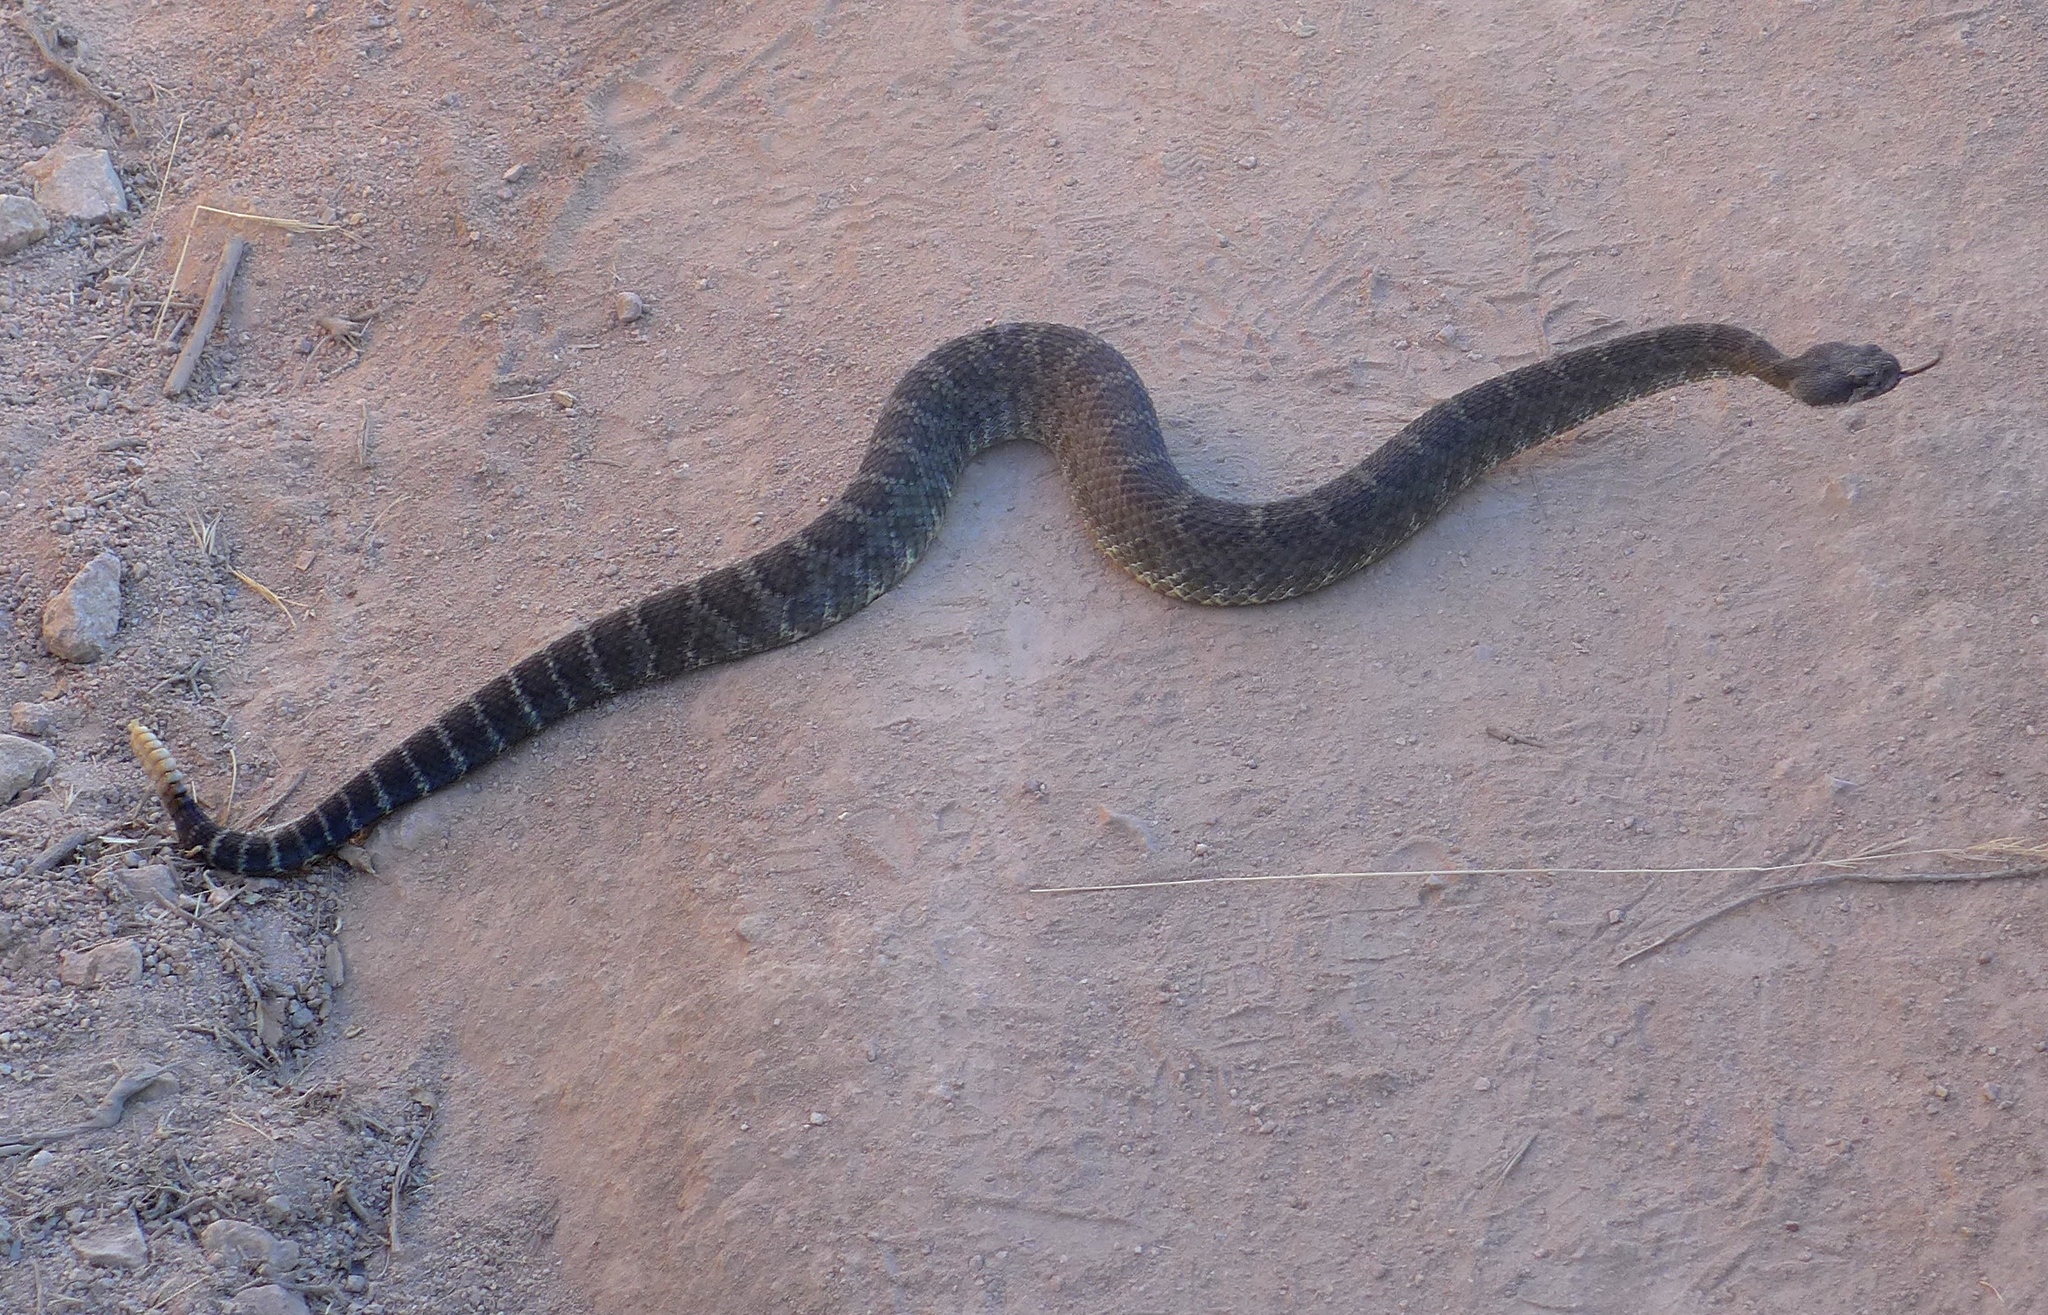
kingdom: Animalia
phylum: Chordata
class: Squamata
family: Viperidae
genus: Crotalus
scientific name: Crotalus oreganus
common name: Abyssus
